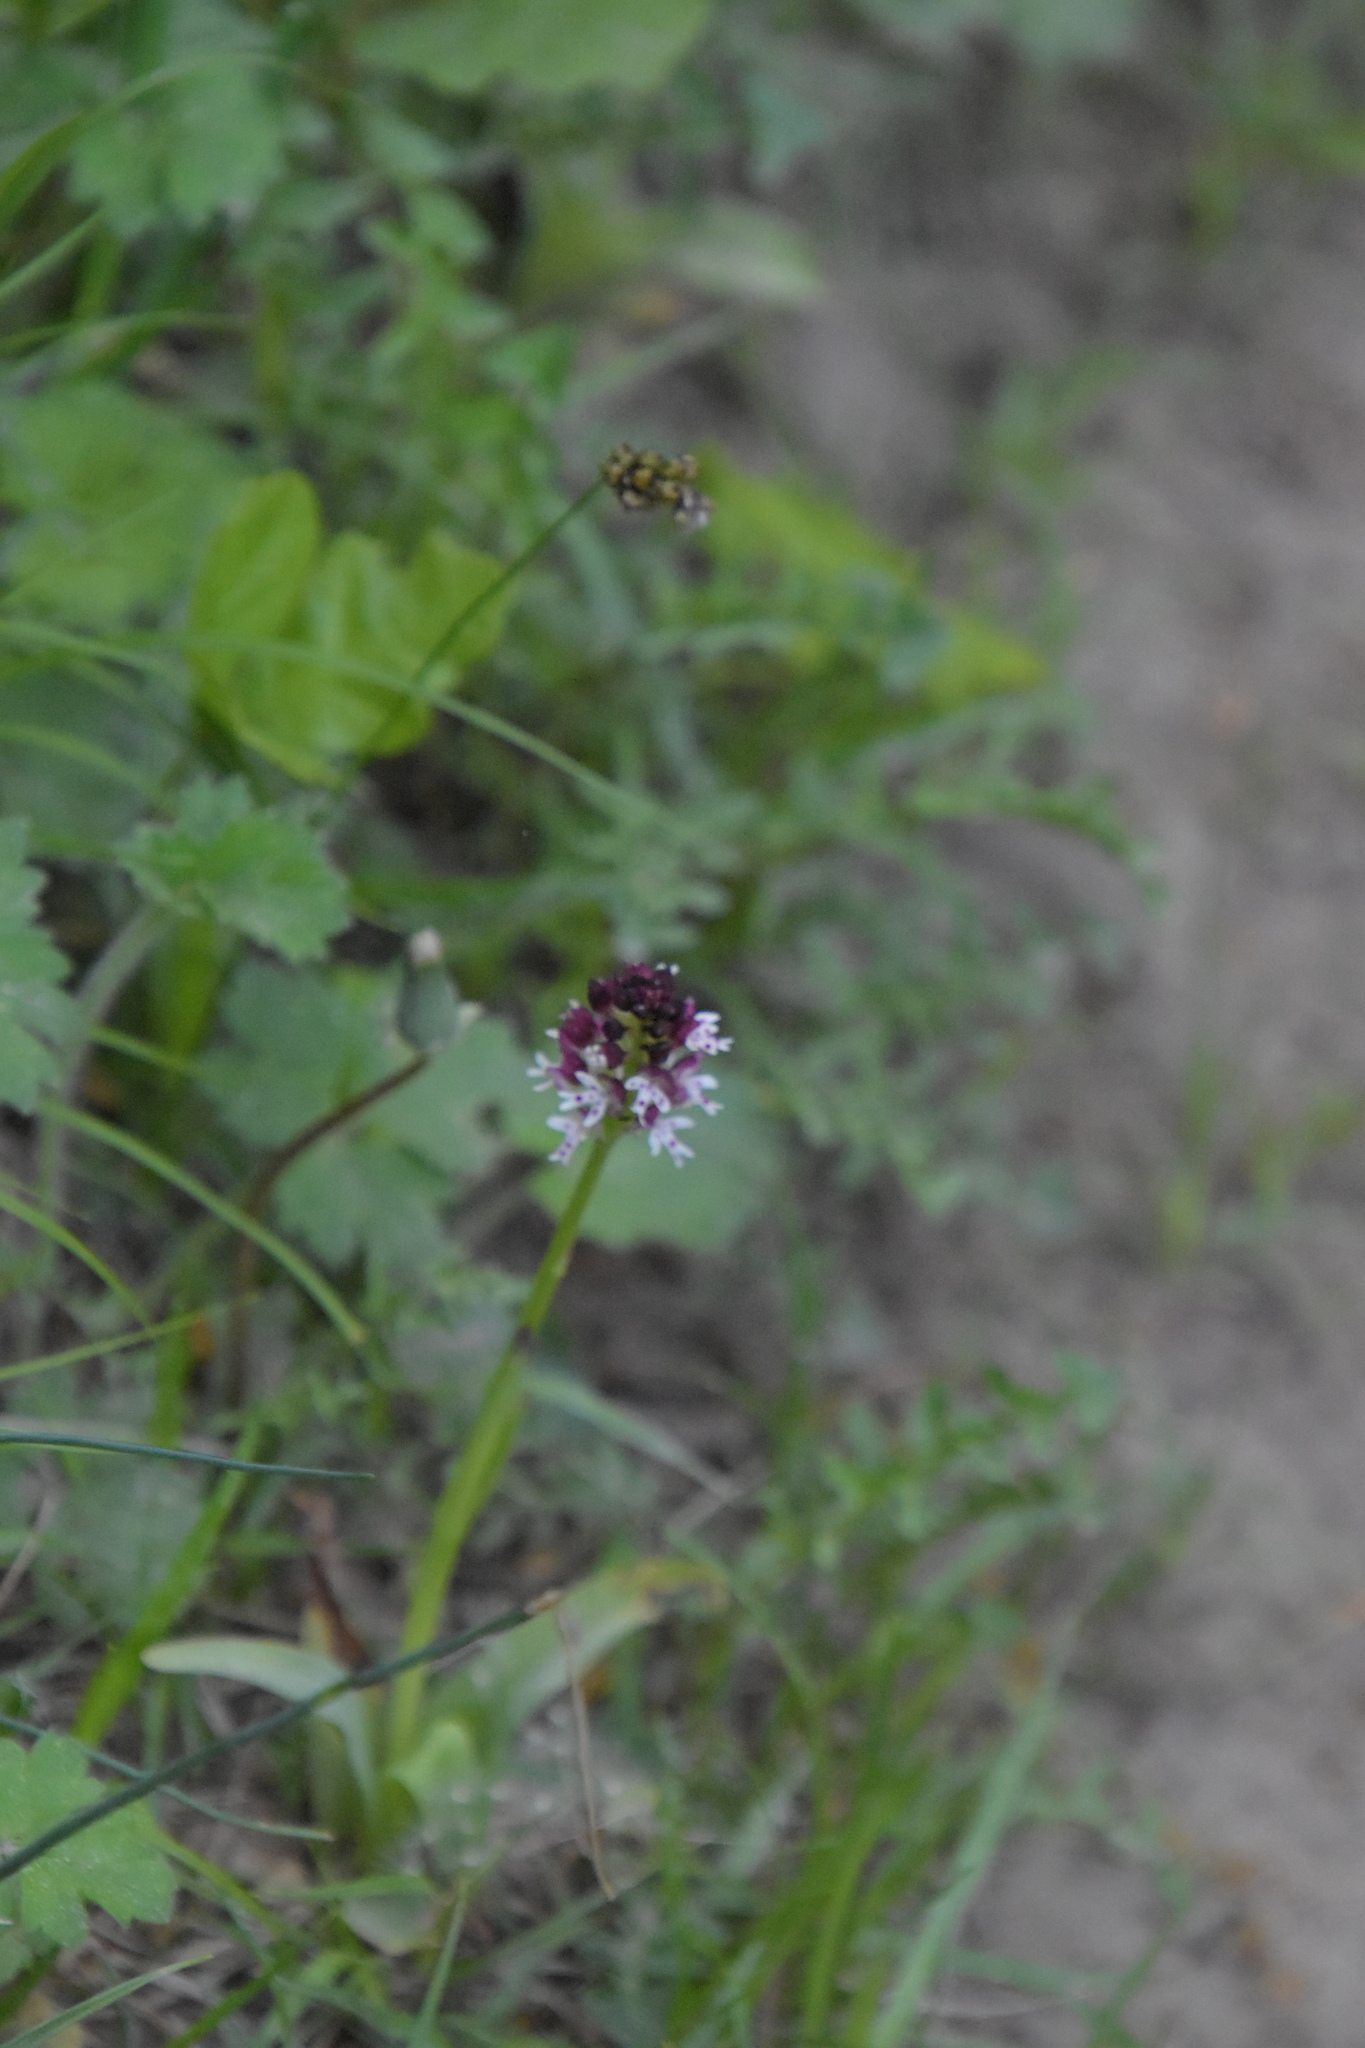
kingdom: Plantae
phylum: Tracheophyta
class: Liliopsida
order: Asparagales
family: Orchidaceae
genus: Neotinea
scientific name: Neotinea ustulata
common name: Burnt orchid
